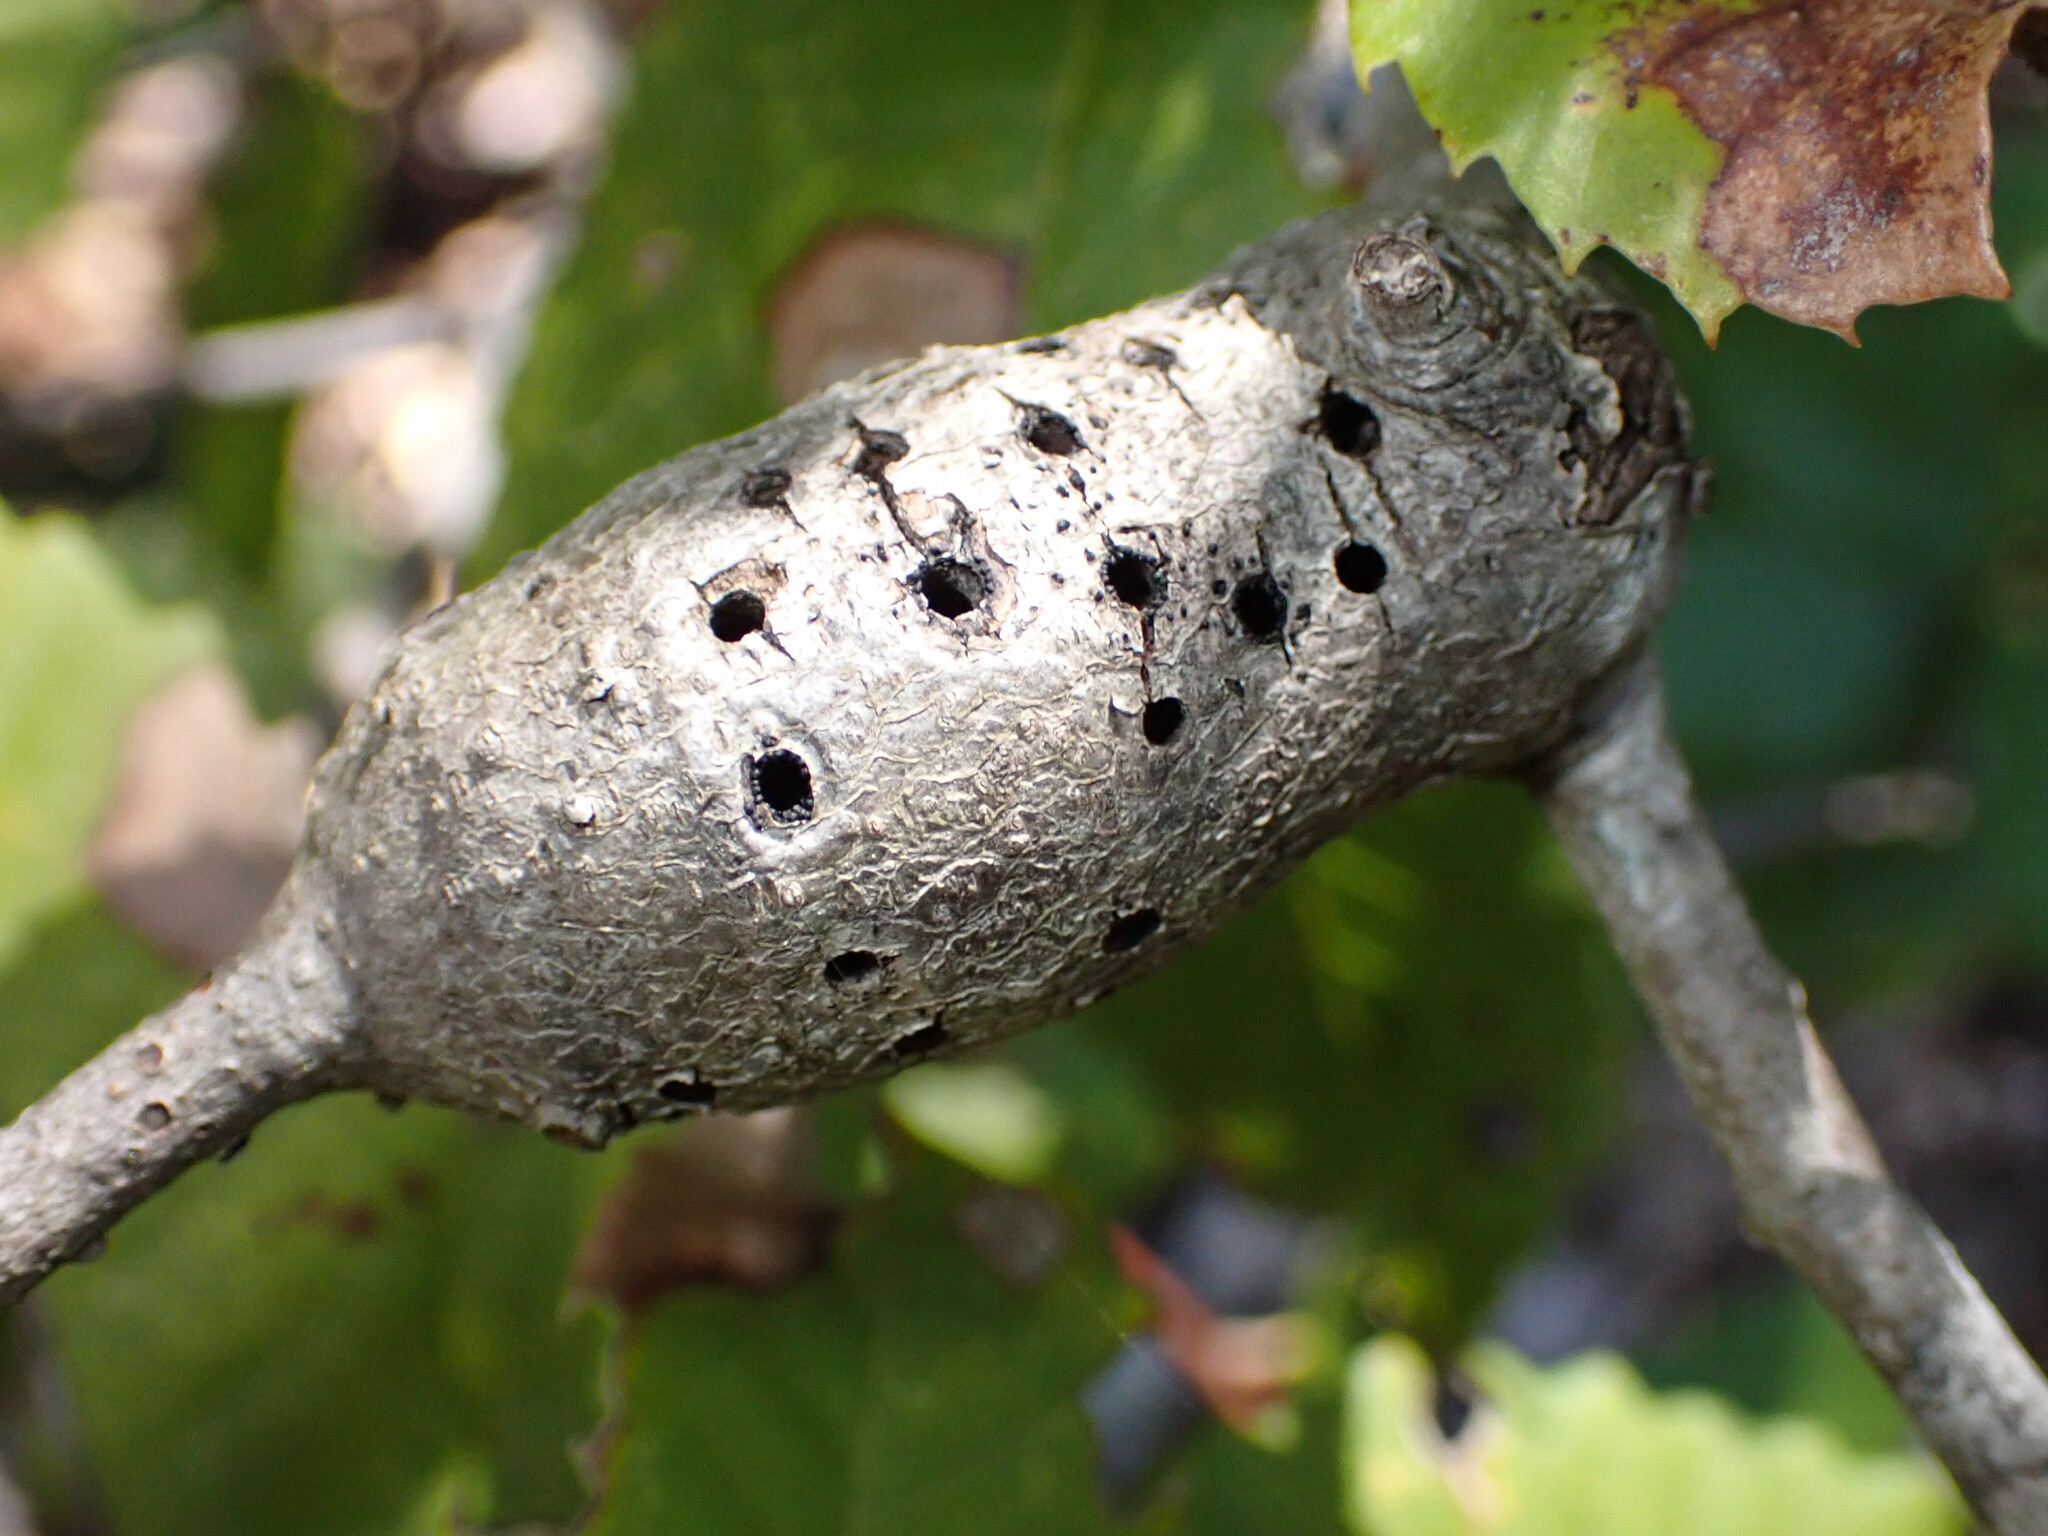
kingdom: Animalia
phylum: Arthropoda
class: Insecta
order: Hymenoptera
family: Cynipidae
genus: Callirhytis
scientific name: Callirhytis
